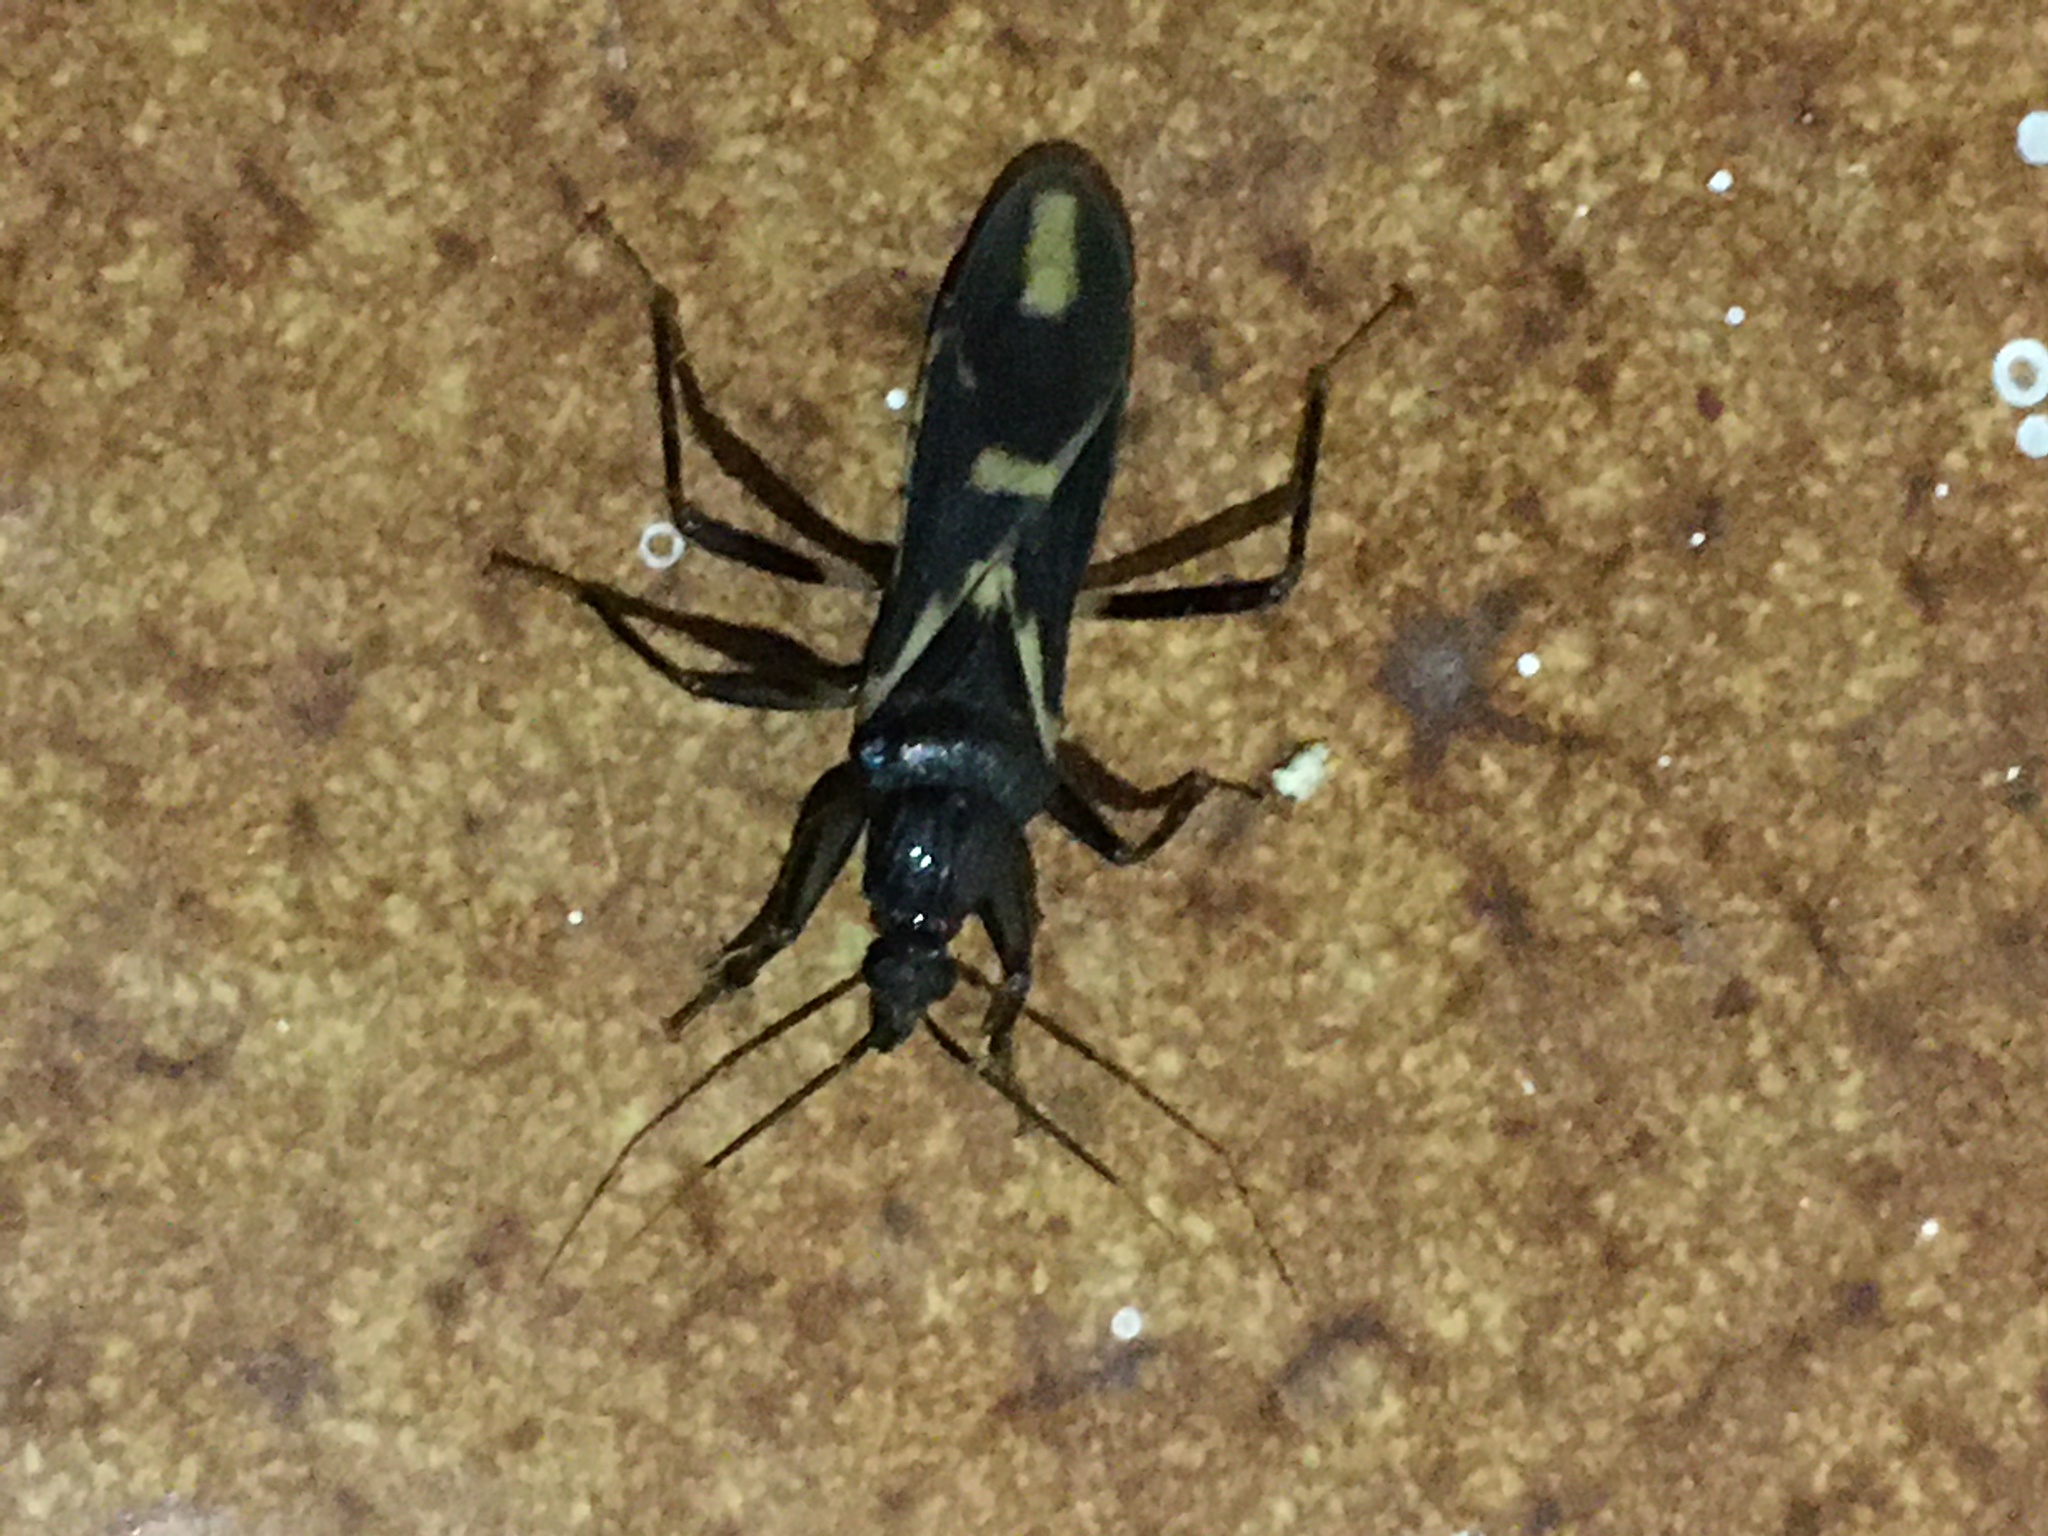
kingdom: Animalia
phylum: Arthropoda
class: Insecta
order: Hemiptera
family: Reduviidae
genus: Rasahus
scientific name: Rasahus sulcicollis
